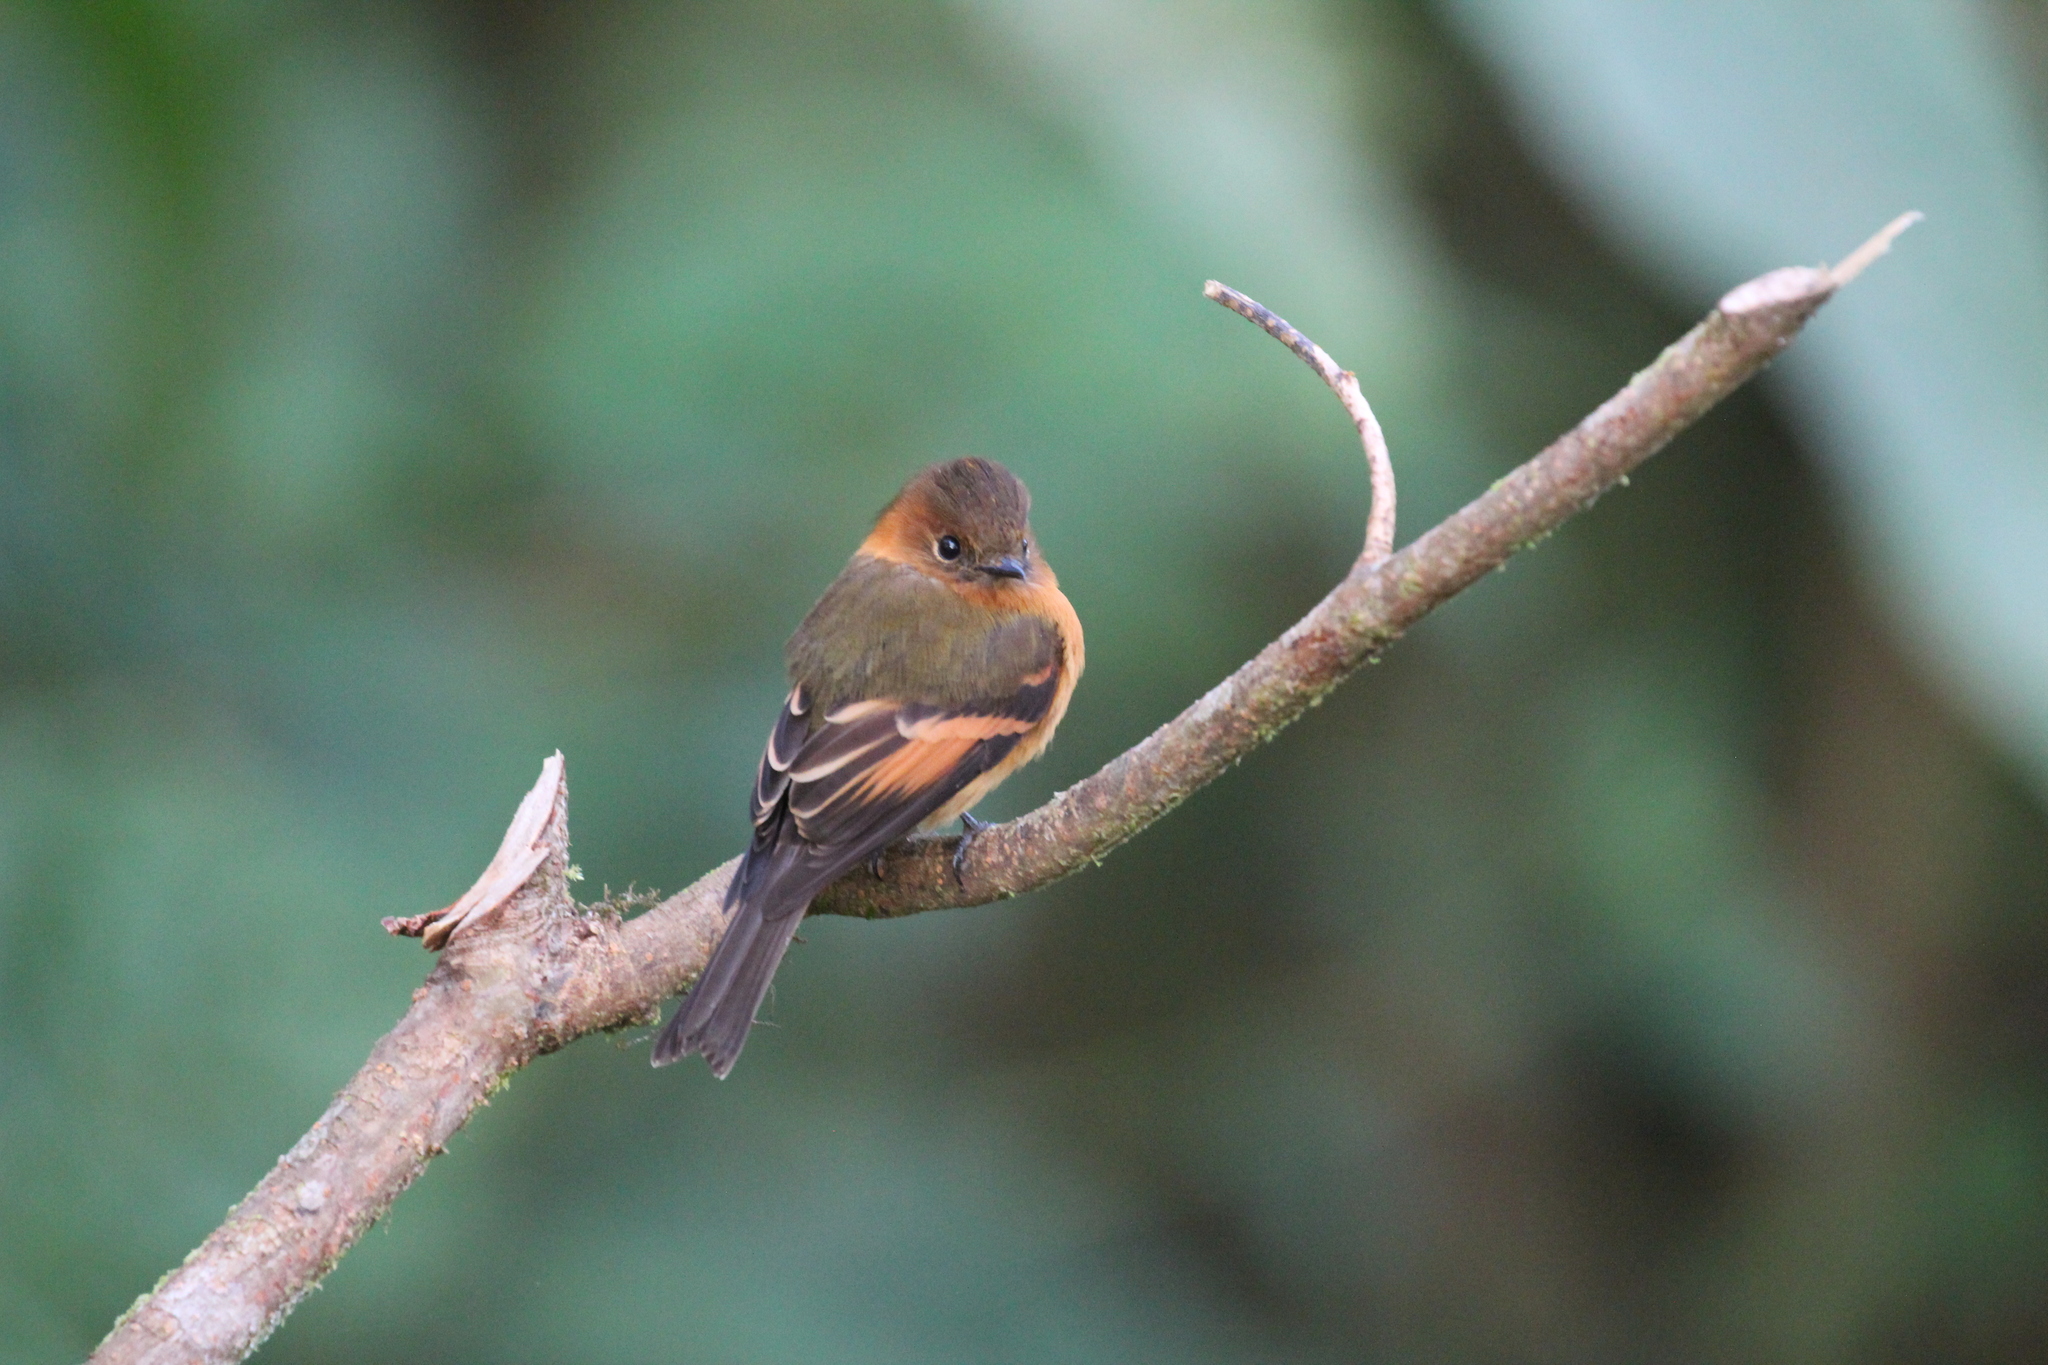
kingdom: Animalia
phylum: Chordata
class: Aves
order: Passeriformes
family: Tyrannidae
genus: Pyrrhomyias
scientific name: Pyrrhomyias cinnamomeus
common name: Cinnamon flycatcher
